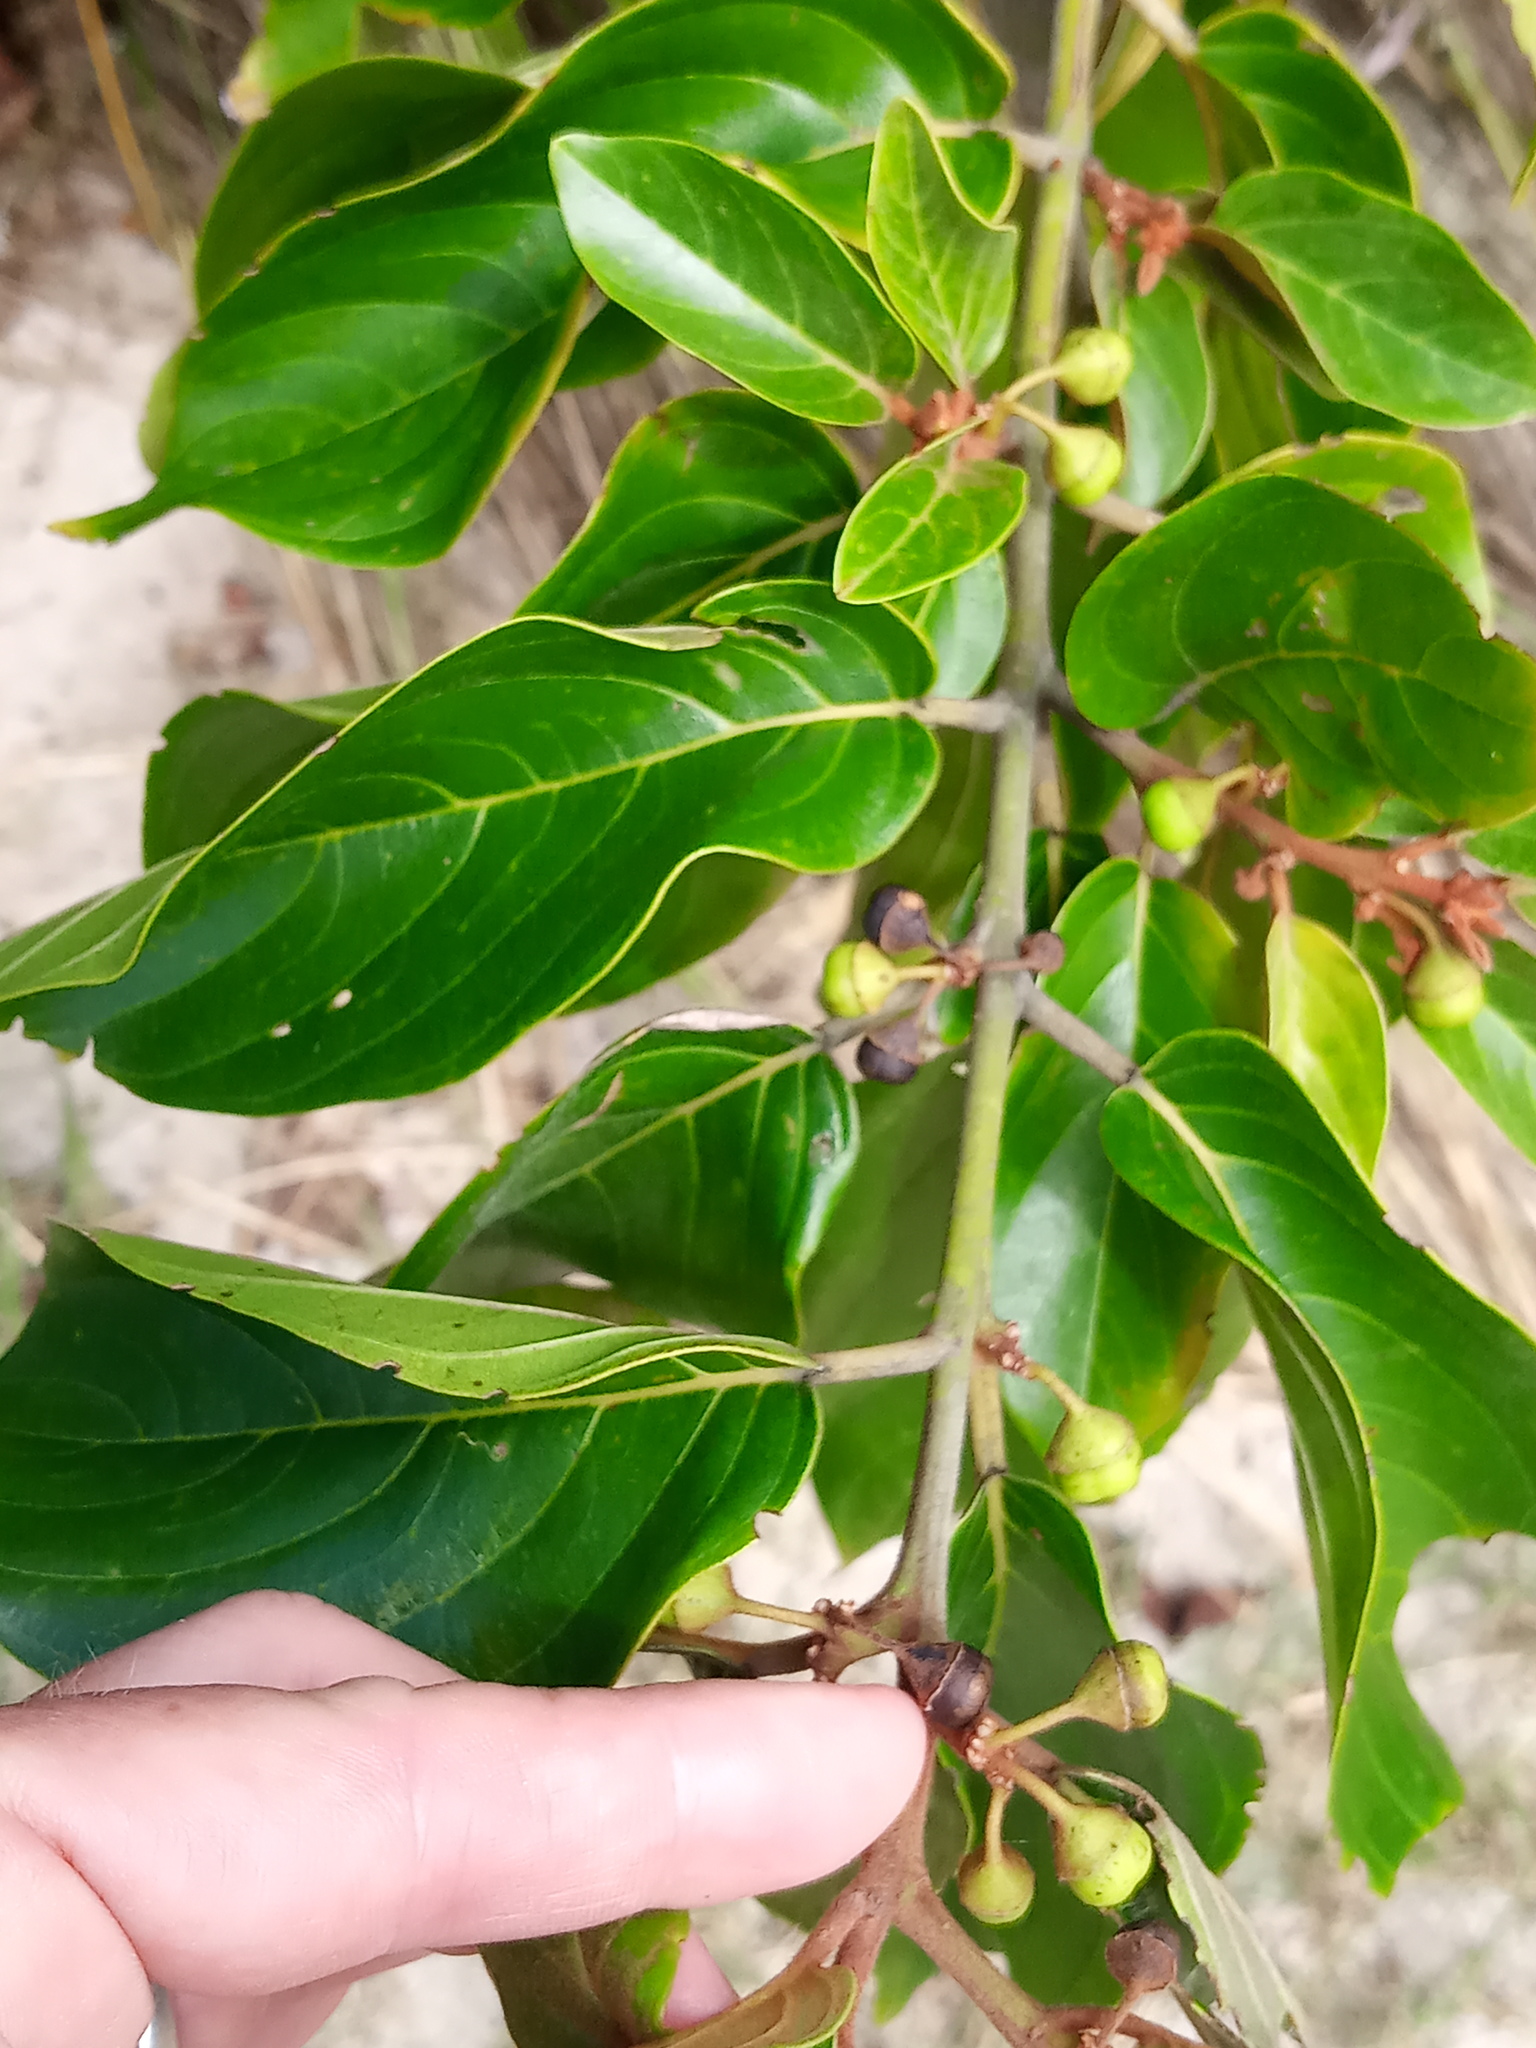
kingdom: Plantae
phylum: Tracheophyta
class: Magnoliopsida
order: Rosales
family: Rhamnaceae
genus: Colubrina
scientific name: Colubrina arborescens
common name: Wild coffee
